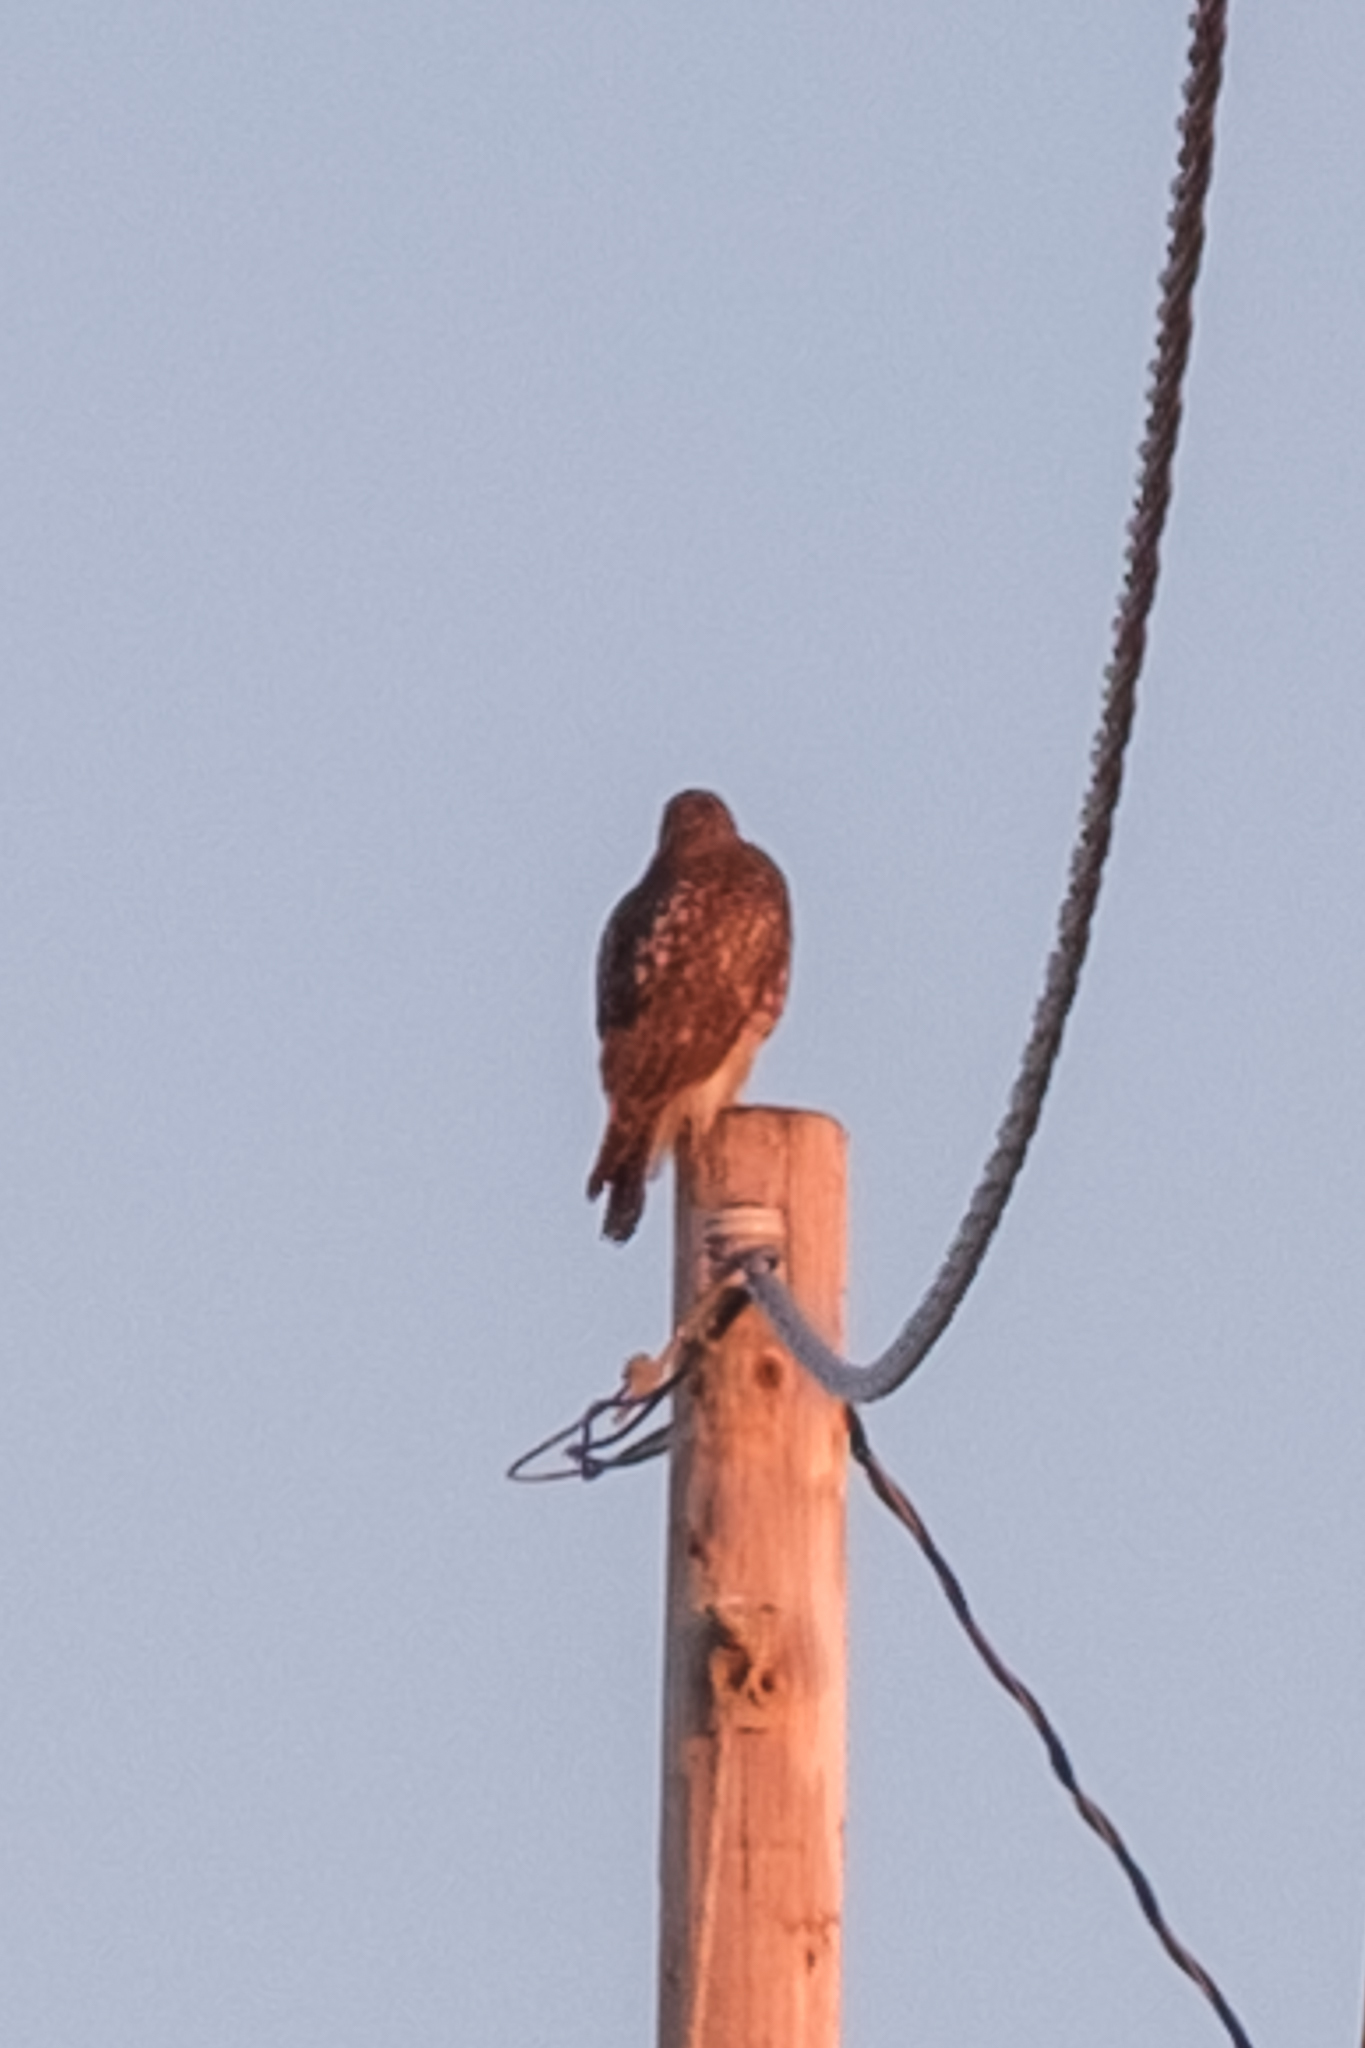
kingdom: Animalia
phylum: Chordata
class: Aves
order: Accipitriformes
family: Accipitridae
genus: Buteo
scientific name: Buteo jamaicensis
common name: Red-tailed hawk
